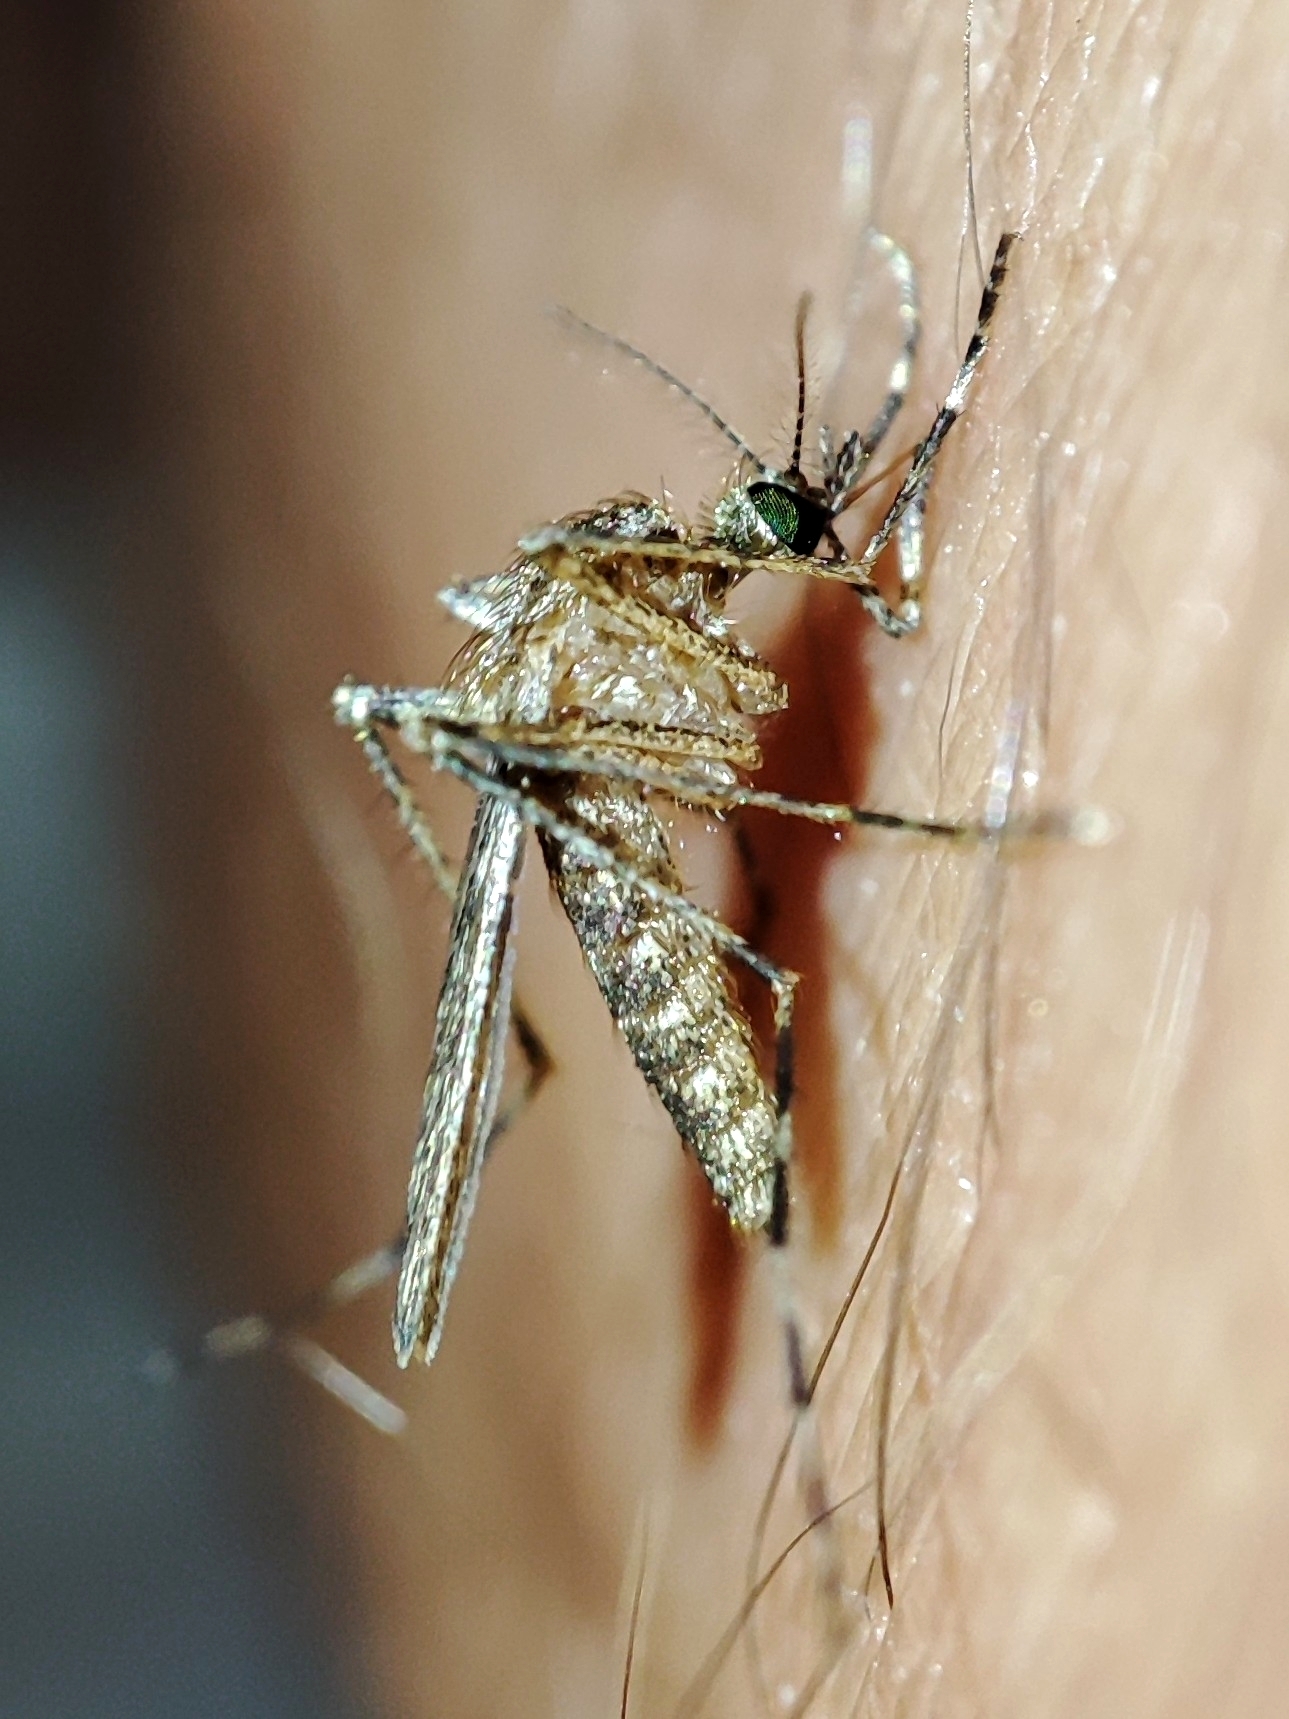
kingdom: Animalia
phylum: Arthropoda
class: Insecta
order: Diptera
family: Culicidae
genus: Coquillettidia
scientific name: Coquillettidia richiardii
